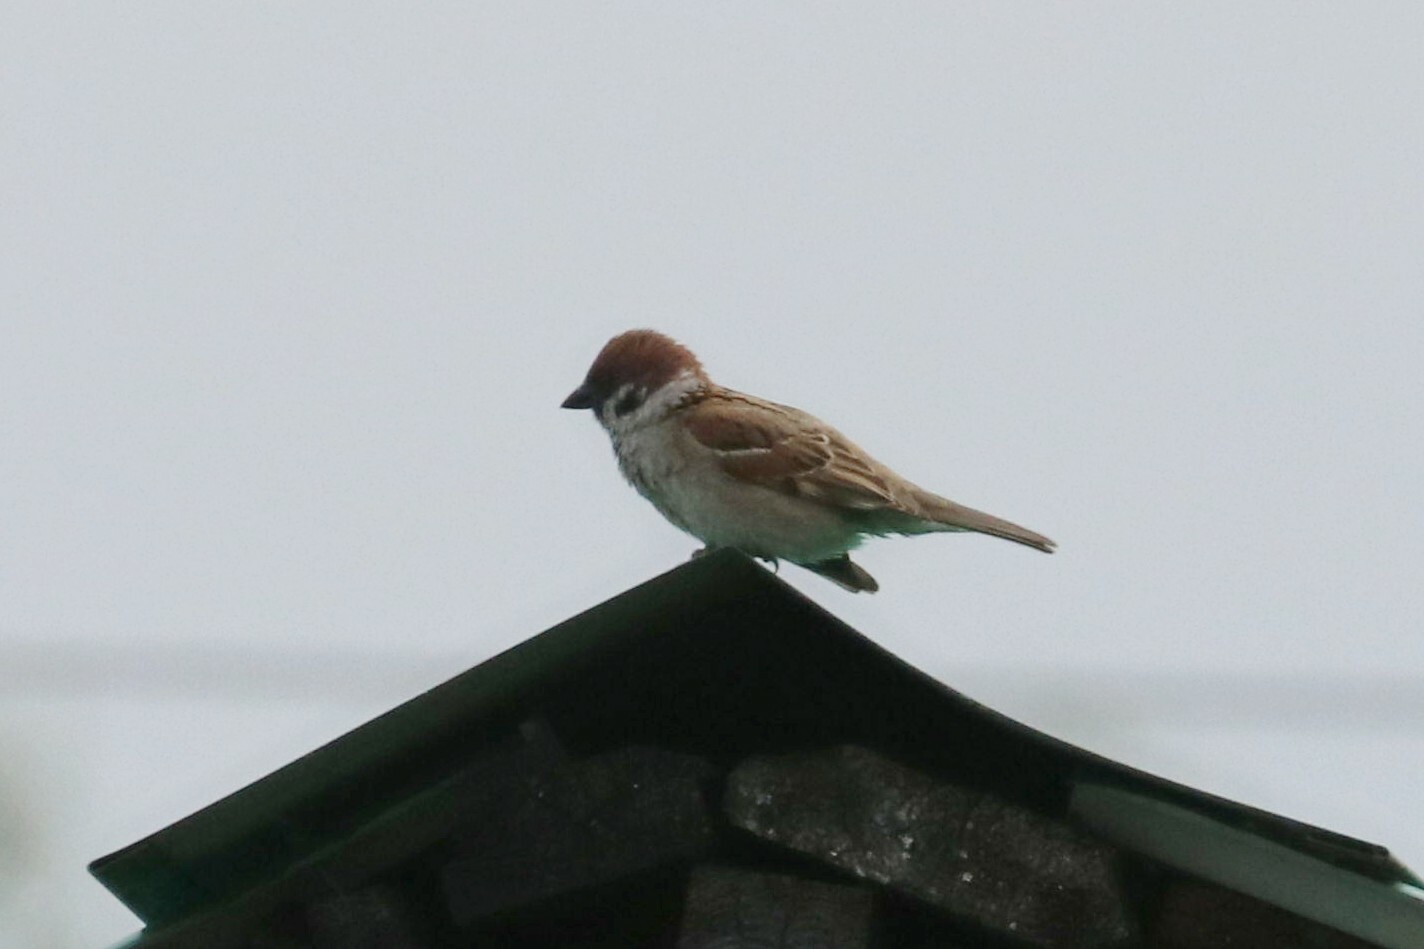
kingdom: Animalia
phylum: Chordata
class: Aves
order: Passeriformes
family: Passeridae
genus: Passer
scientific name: Passer montanus
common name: Eurasian tree sparrow
